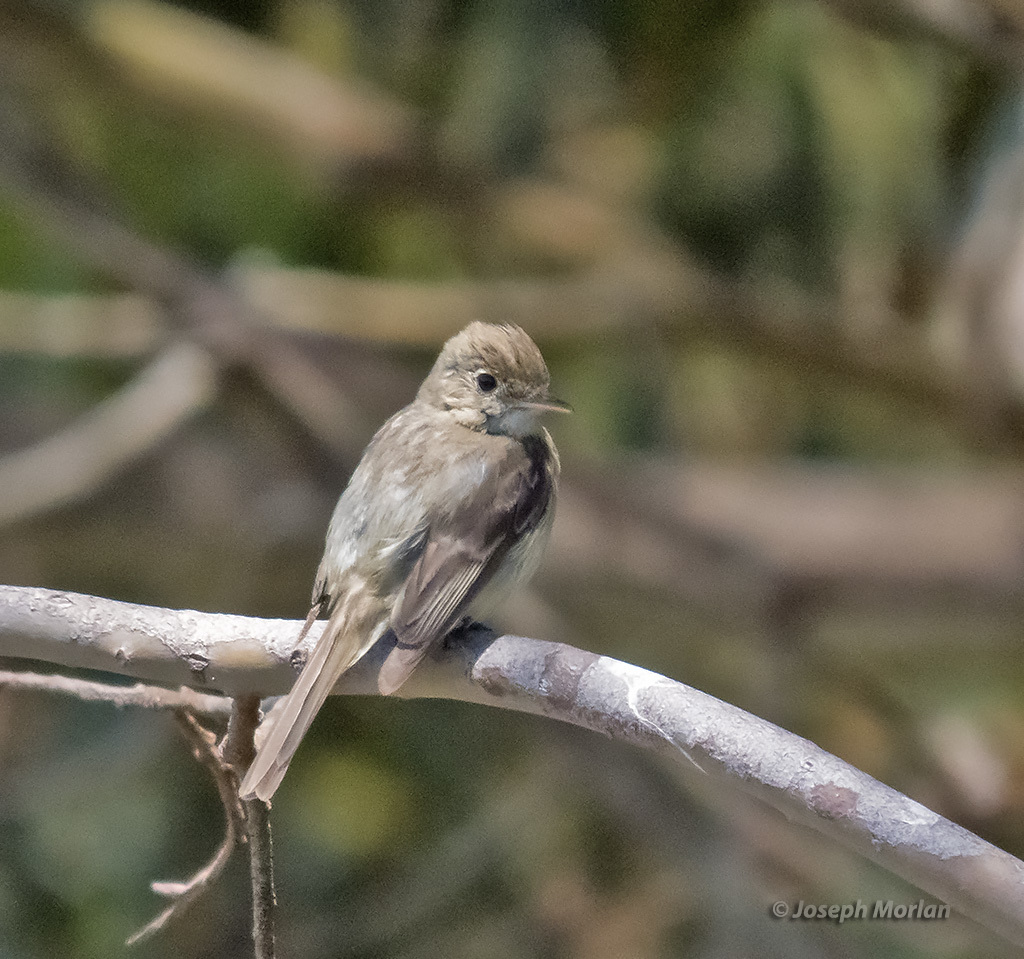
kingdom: Animalia
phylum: Chordata
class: Aves
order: Passeriformes
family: Tyrannidae
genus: Empidonax
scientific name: Empidonax difficilis
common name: Pacific-slope flycatcher
